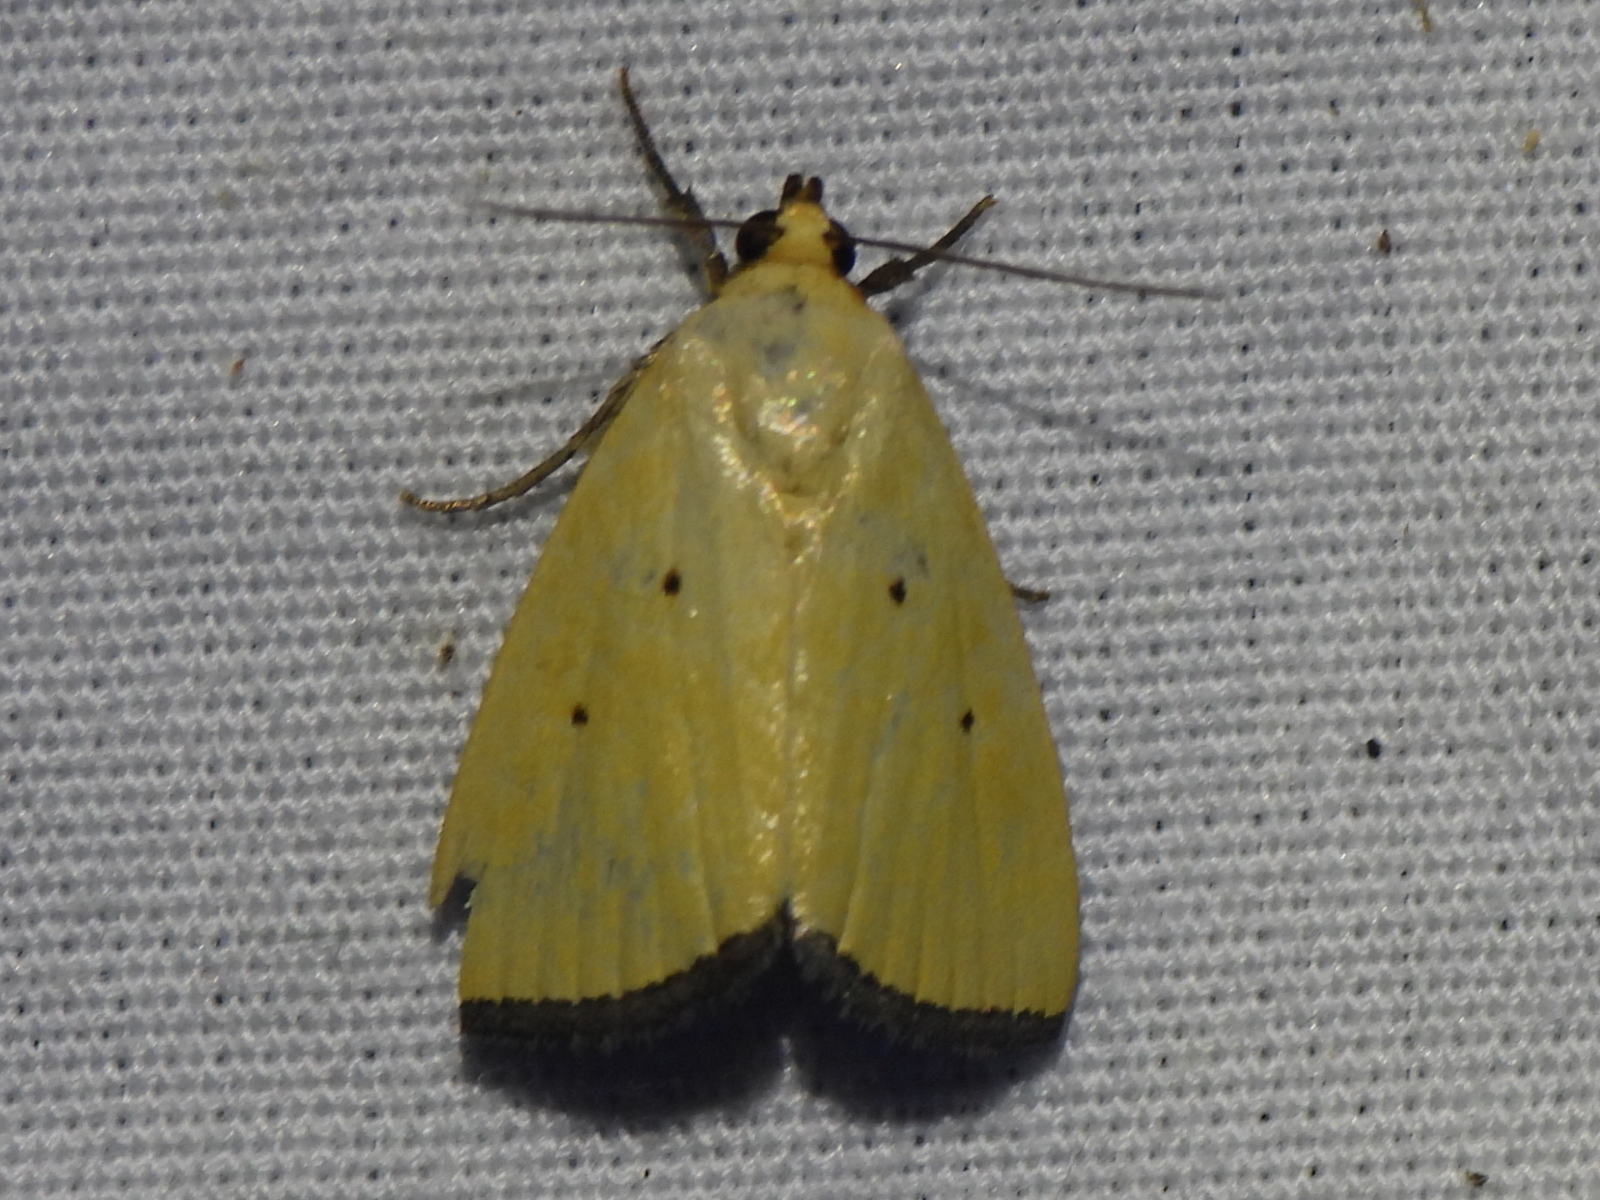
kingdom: Animalia
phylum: Arthropoda
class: Insecta
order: Lepidoptera
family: Noctuidae
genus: Marimatha
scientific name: Marimatha nigrofimbria
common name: Black-bordered lemon moth
